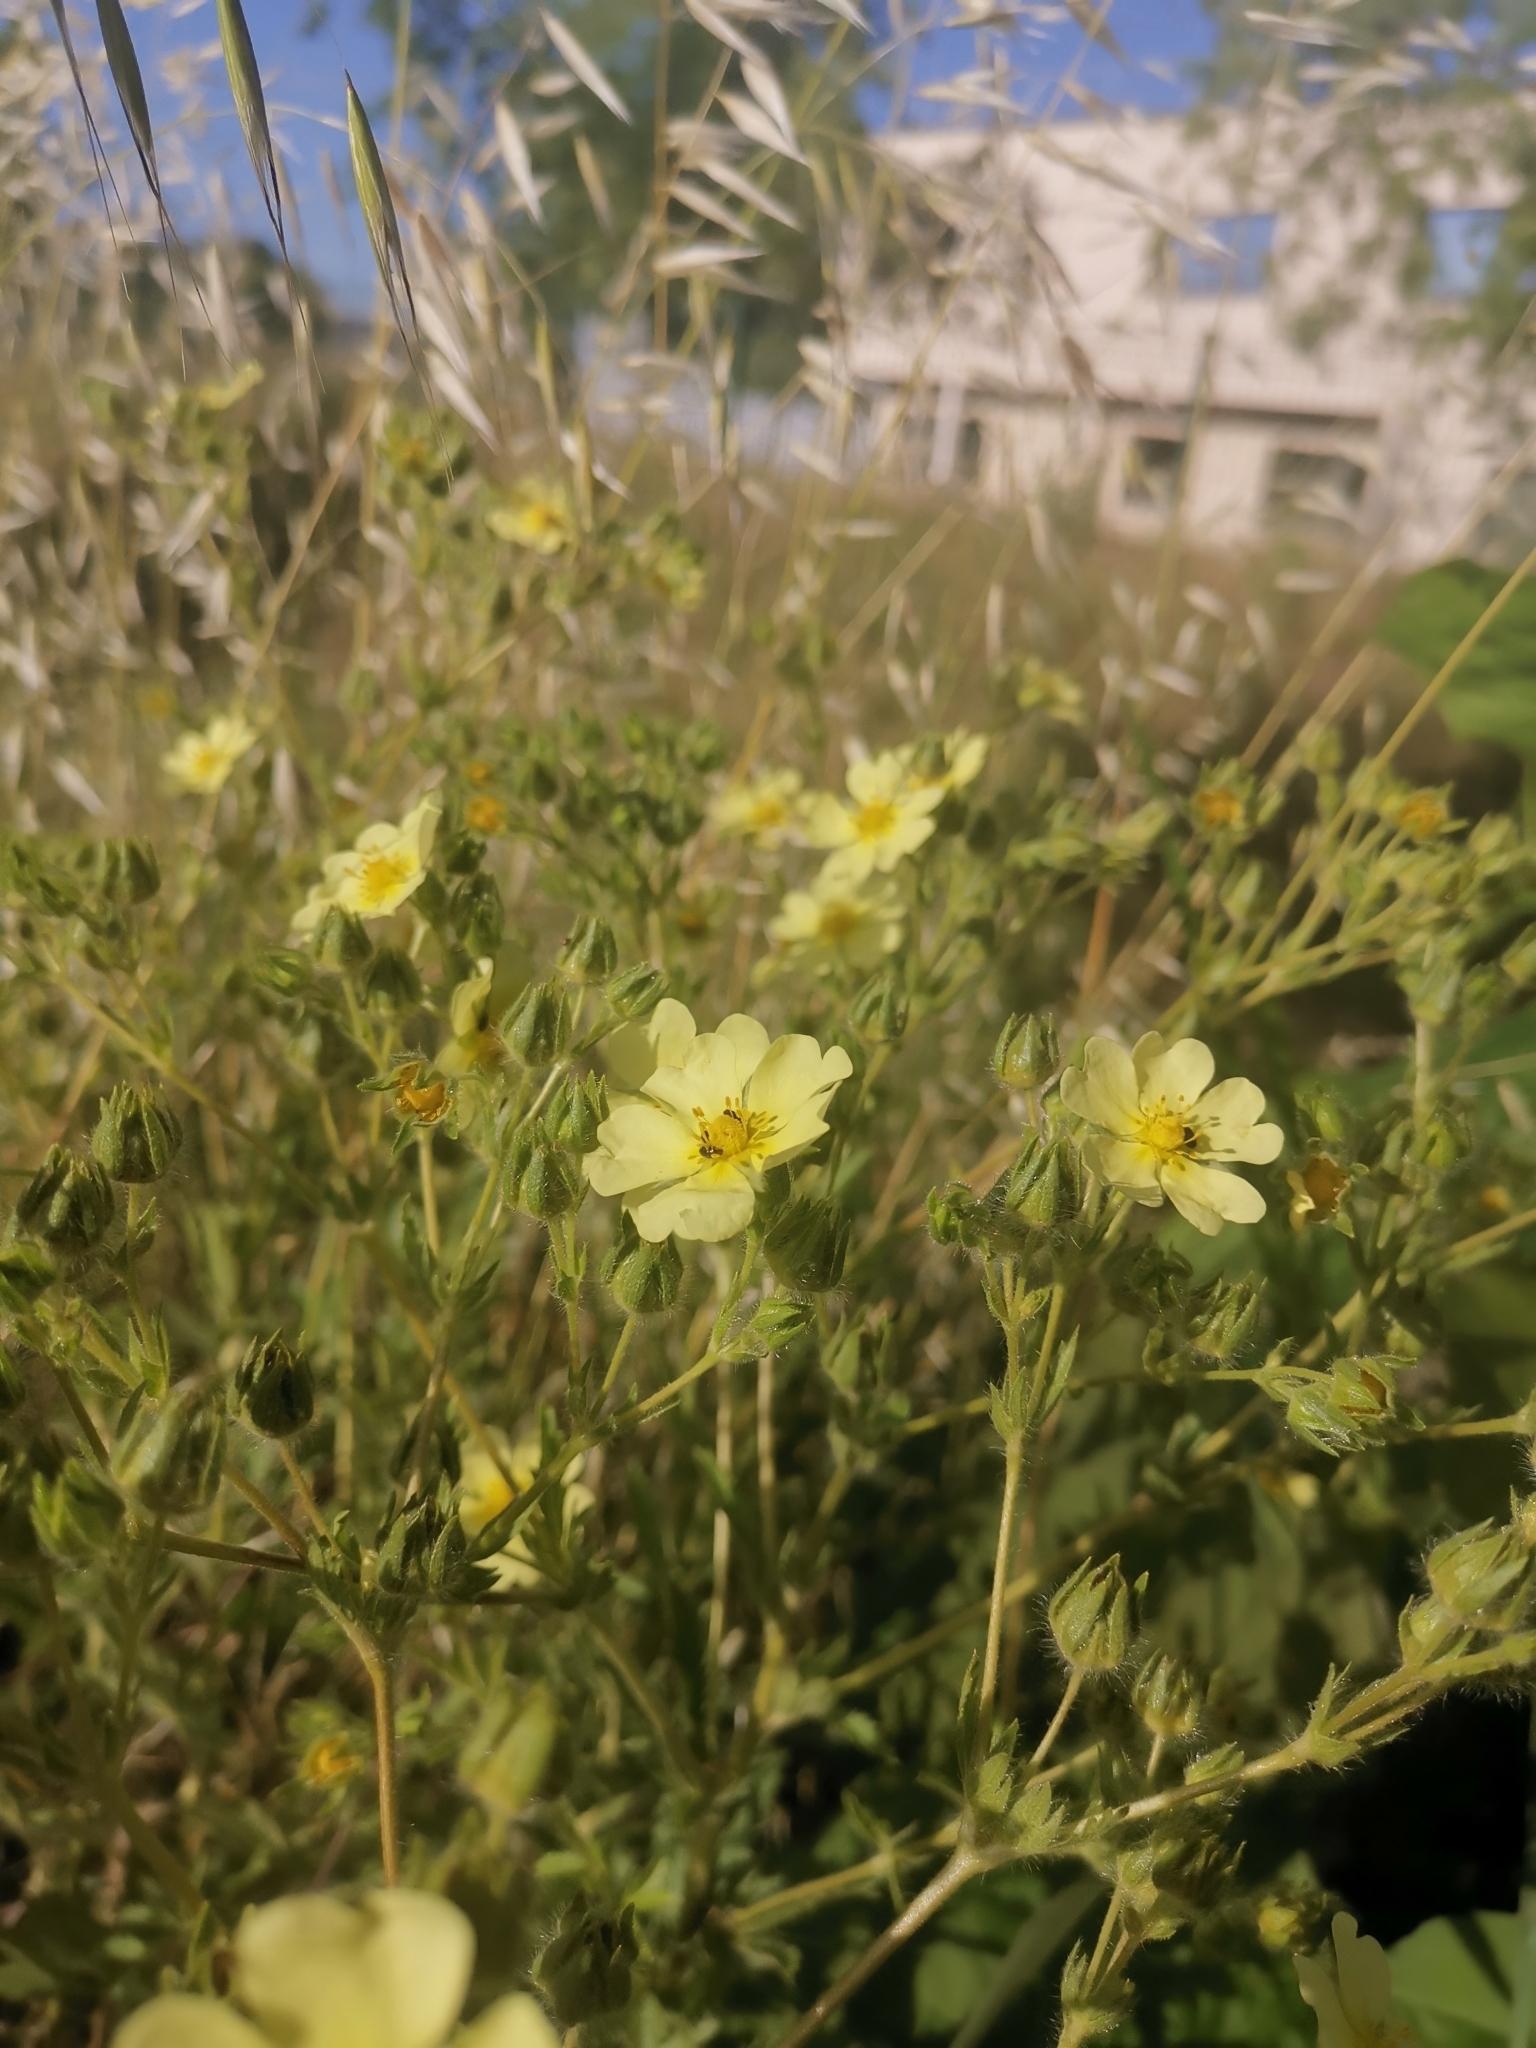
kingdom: Plantae
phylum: Tracheophyta
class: Magnoliopsida
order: Rosales
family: Rosaceae
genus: Potentilla
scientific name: Potentilla recta
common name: Sulphur cinquefoil
